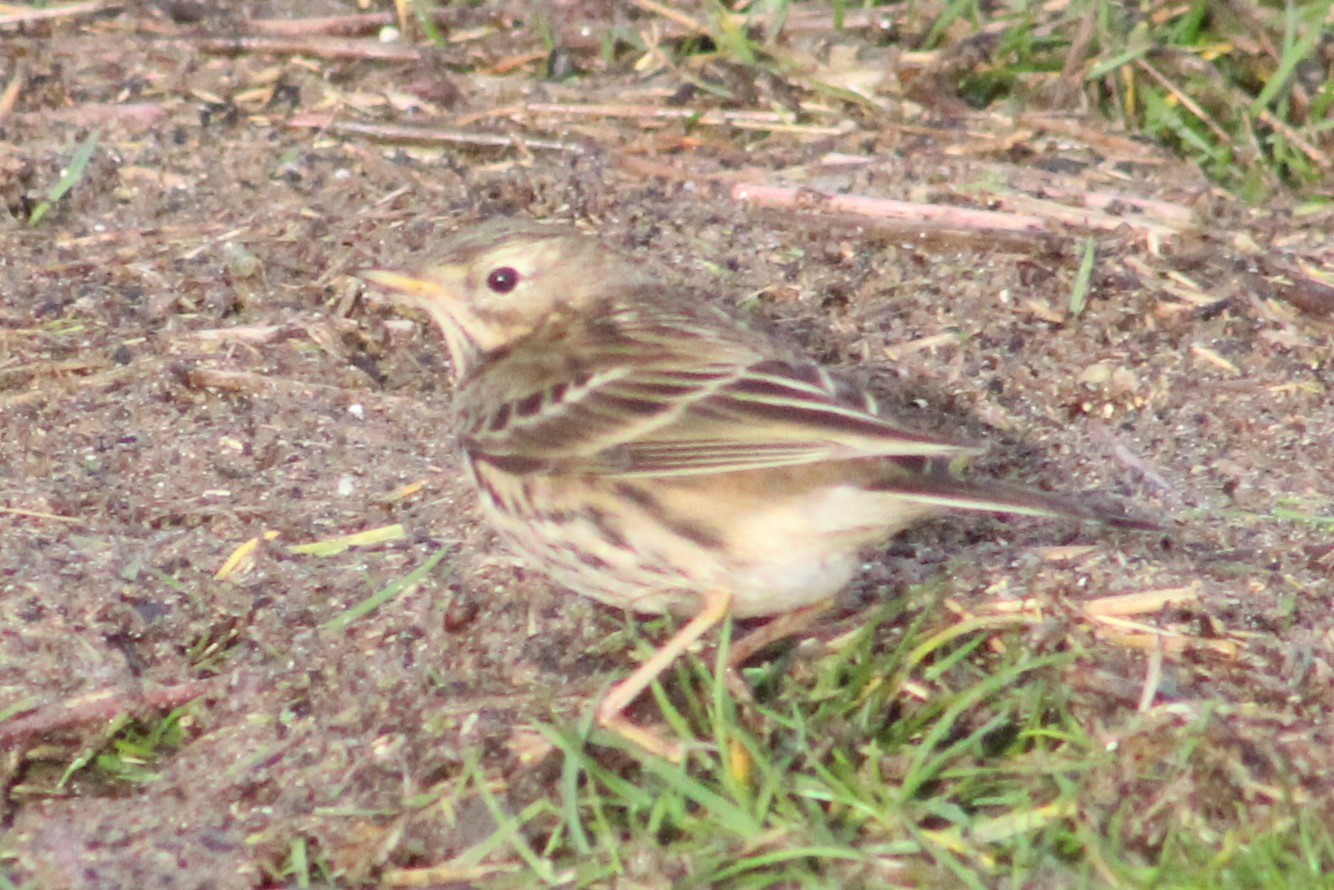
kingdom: Animalia
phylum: Chordata
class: Aves
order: Passeriformes
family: Motacillidae
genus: Anthus
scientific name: Anthus pratensis
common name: Meadow pipit
